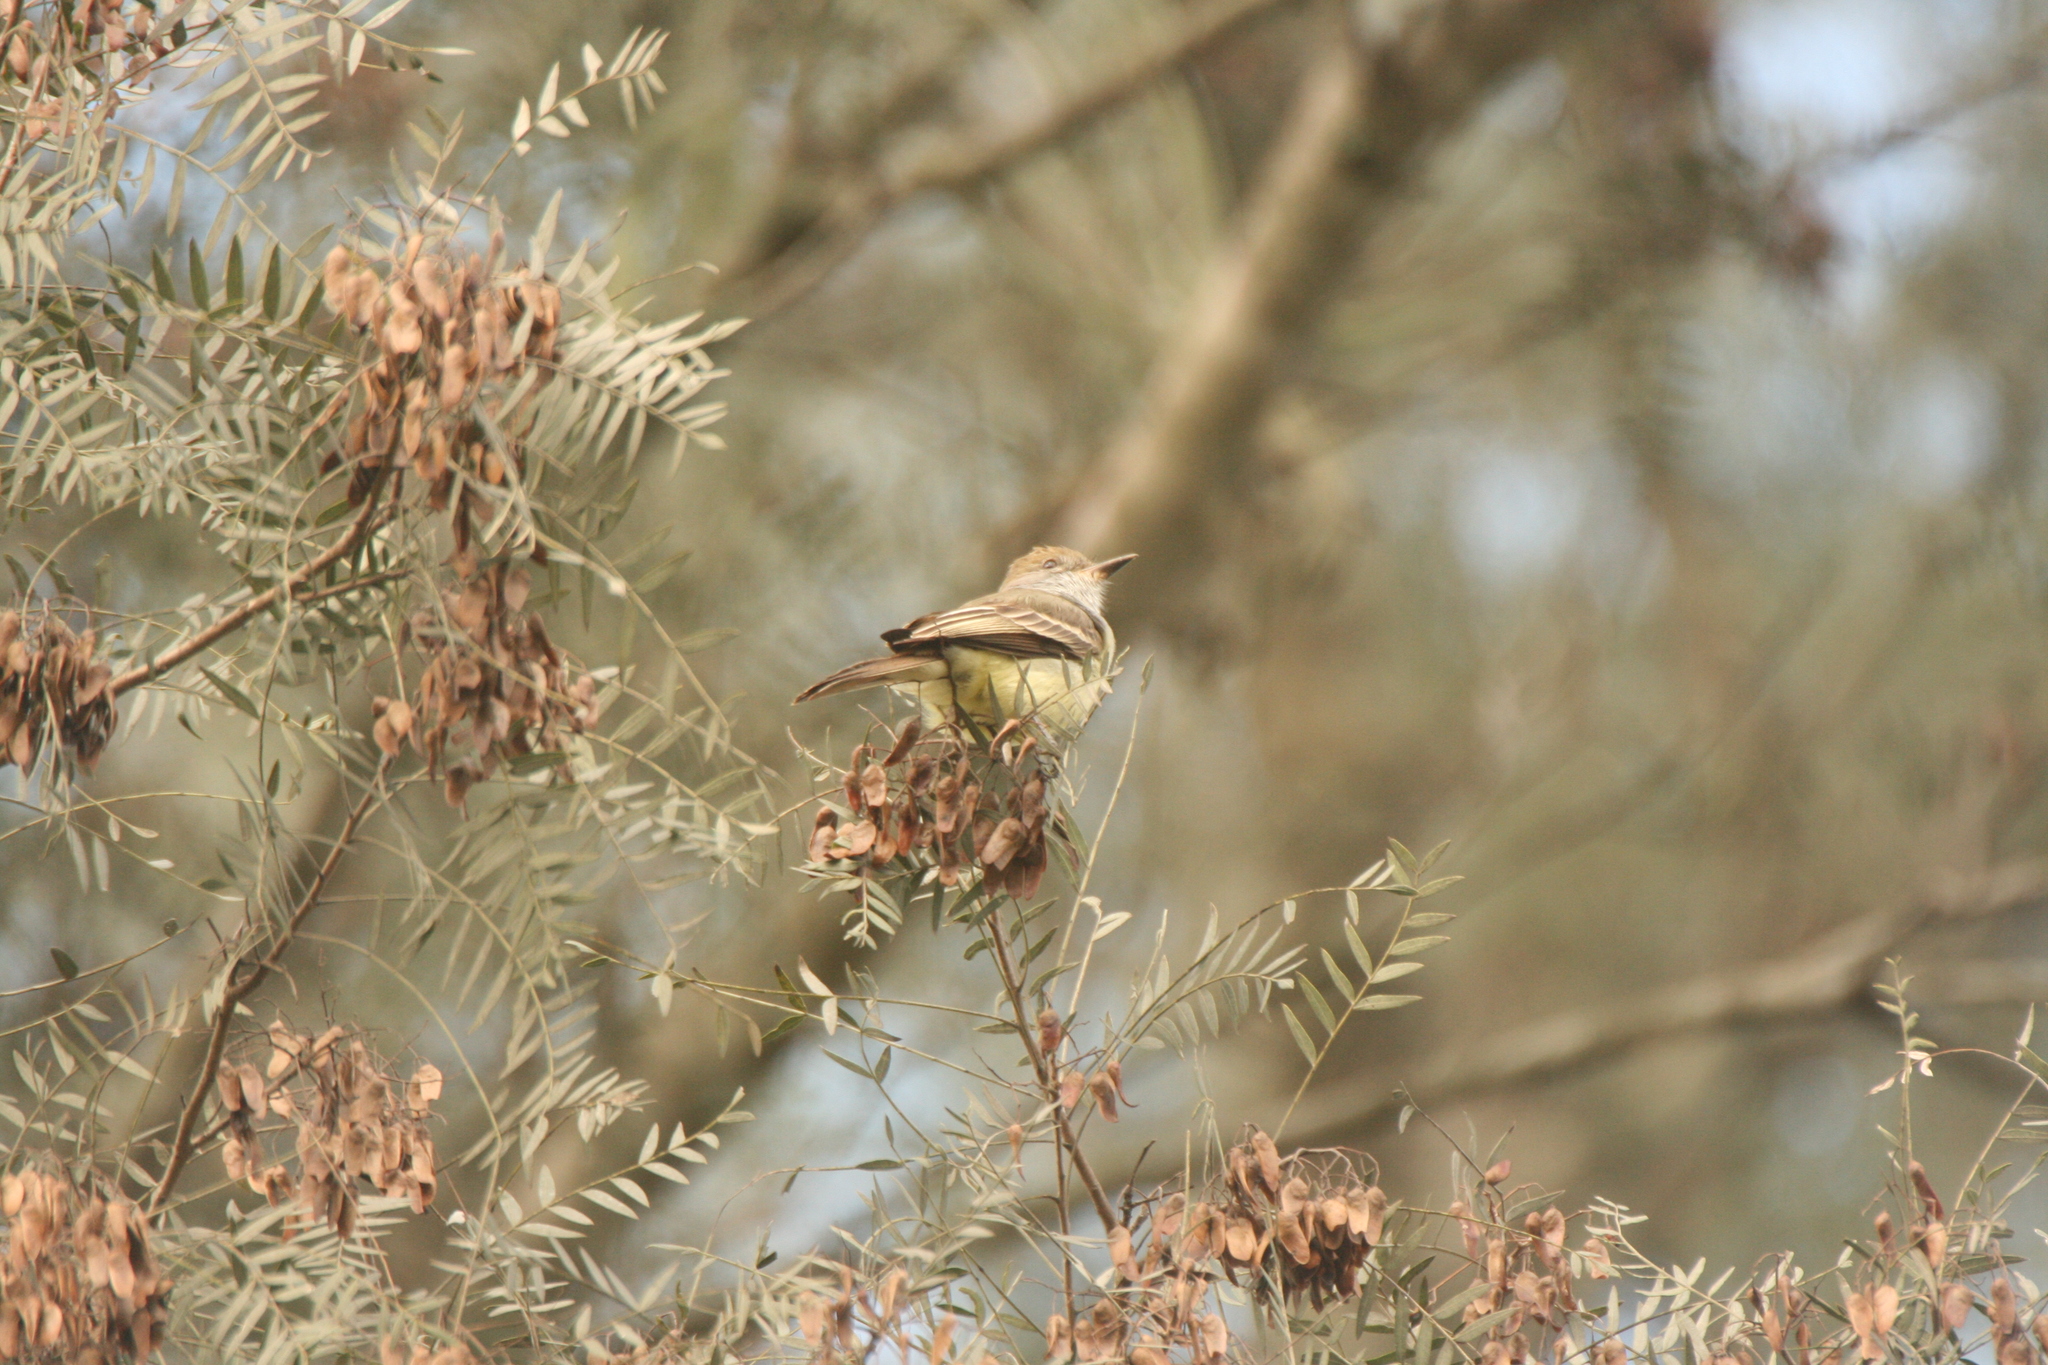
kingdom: Animalia
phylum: Chordata
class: Aves
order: Passeriformes
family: Tyrannidae
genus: Myiarchus
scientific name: Myiarchus tyrannulus
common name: Brown-crested flycatcher
